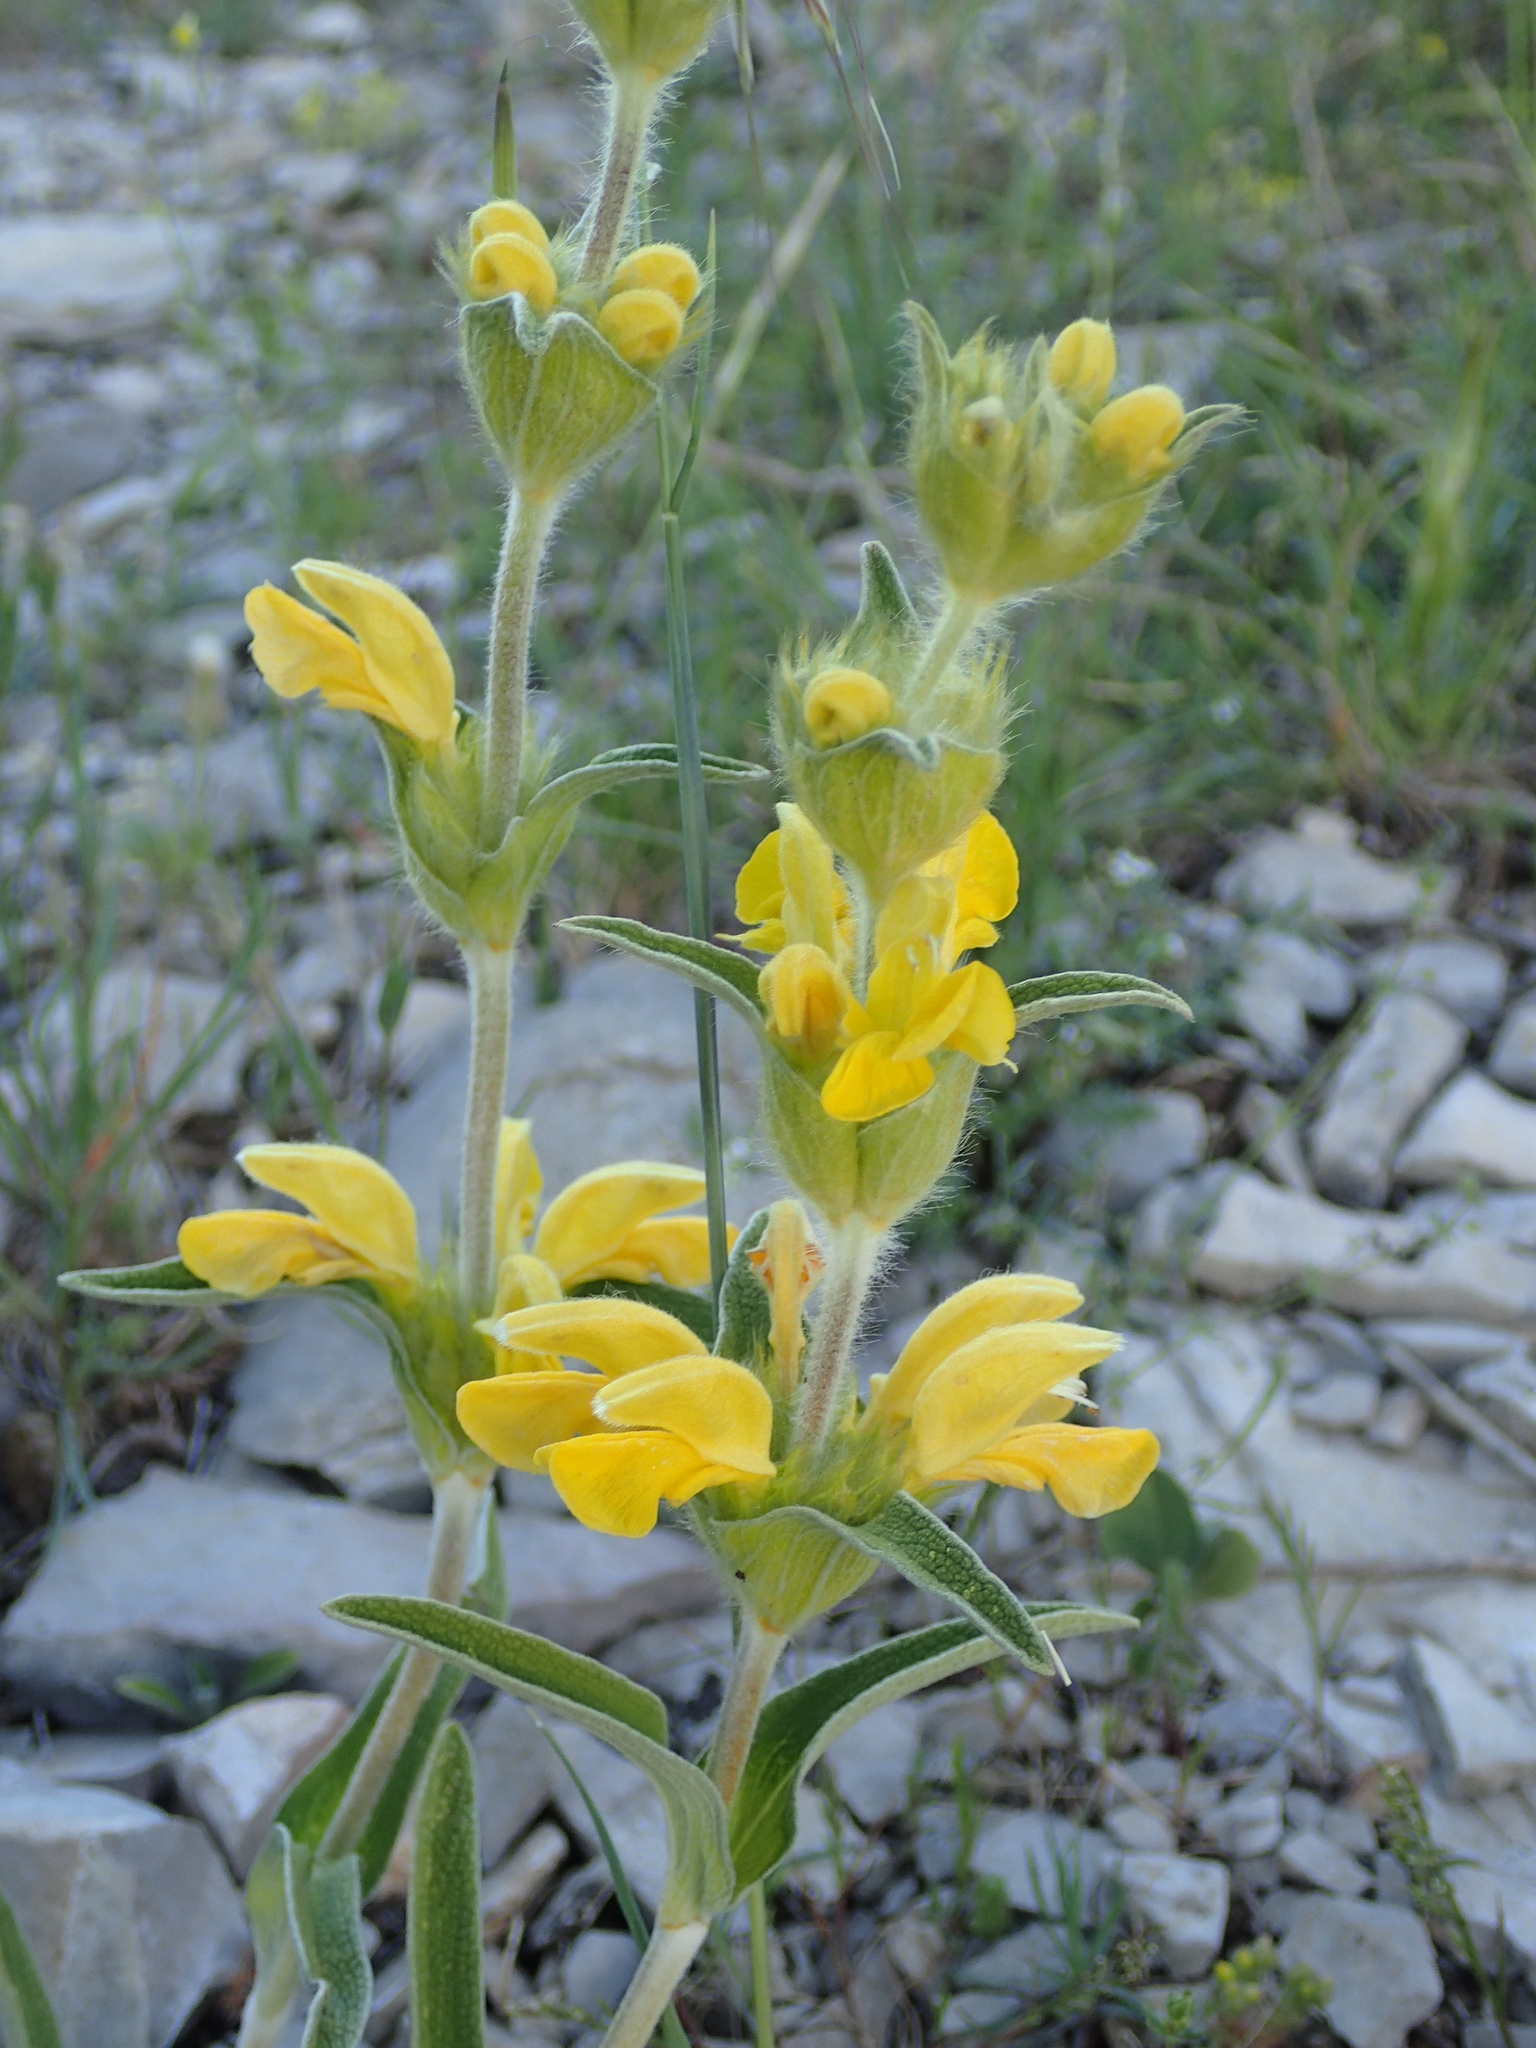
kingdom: Plantae
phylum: Tracheophyta
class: Magnoliopsida
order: Lamiales
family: Lamiaceae
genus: Phlomis
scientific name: Phlomis lychnitis
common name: Lampwickplant
